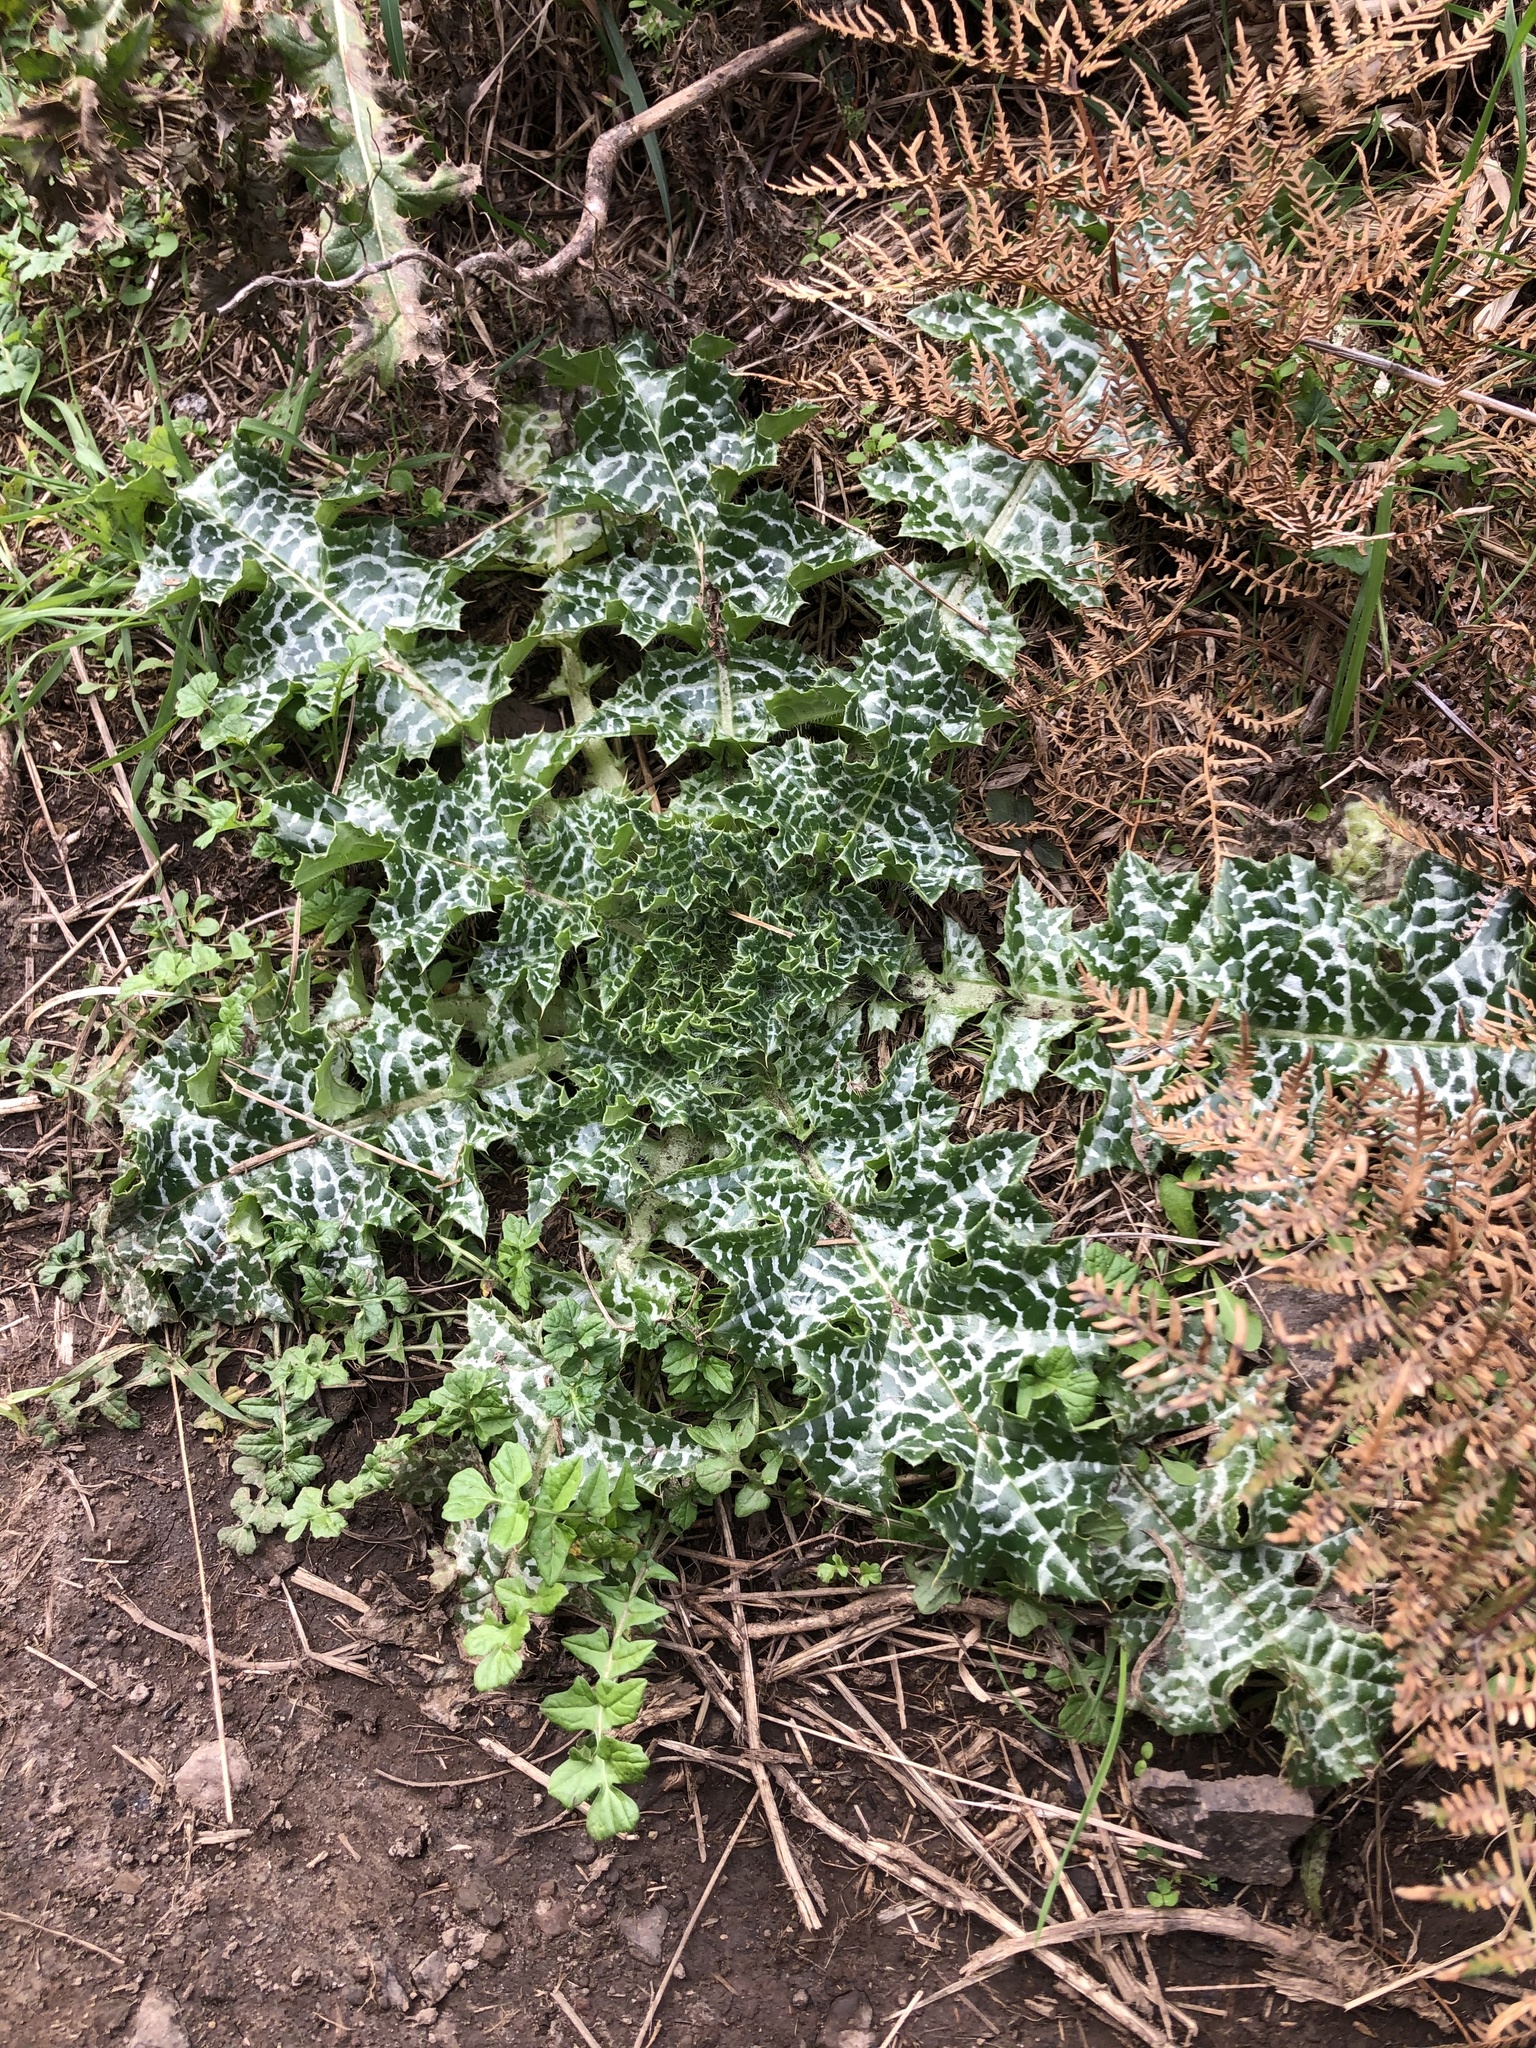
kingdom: Plantae
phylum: Tracheophyta
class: Magnoliopsida
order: Asterales
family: Asteraceae
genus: Silybum
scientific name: Silybum marianum
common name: Milk thistle
